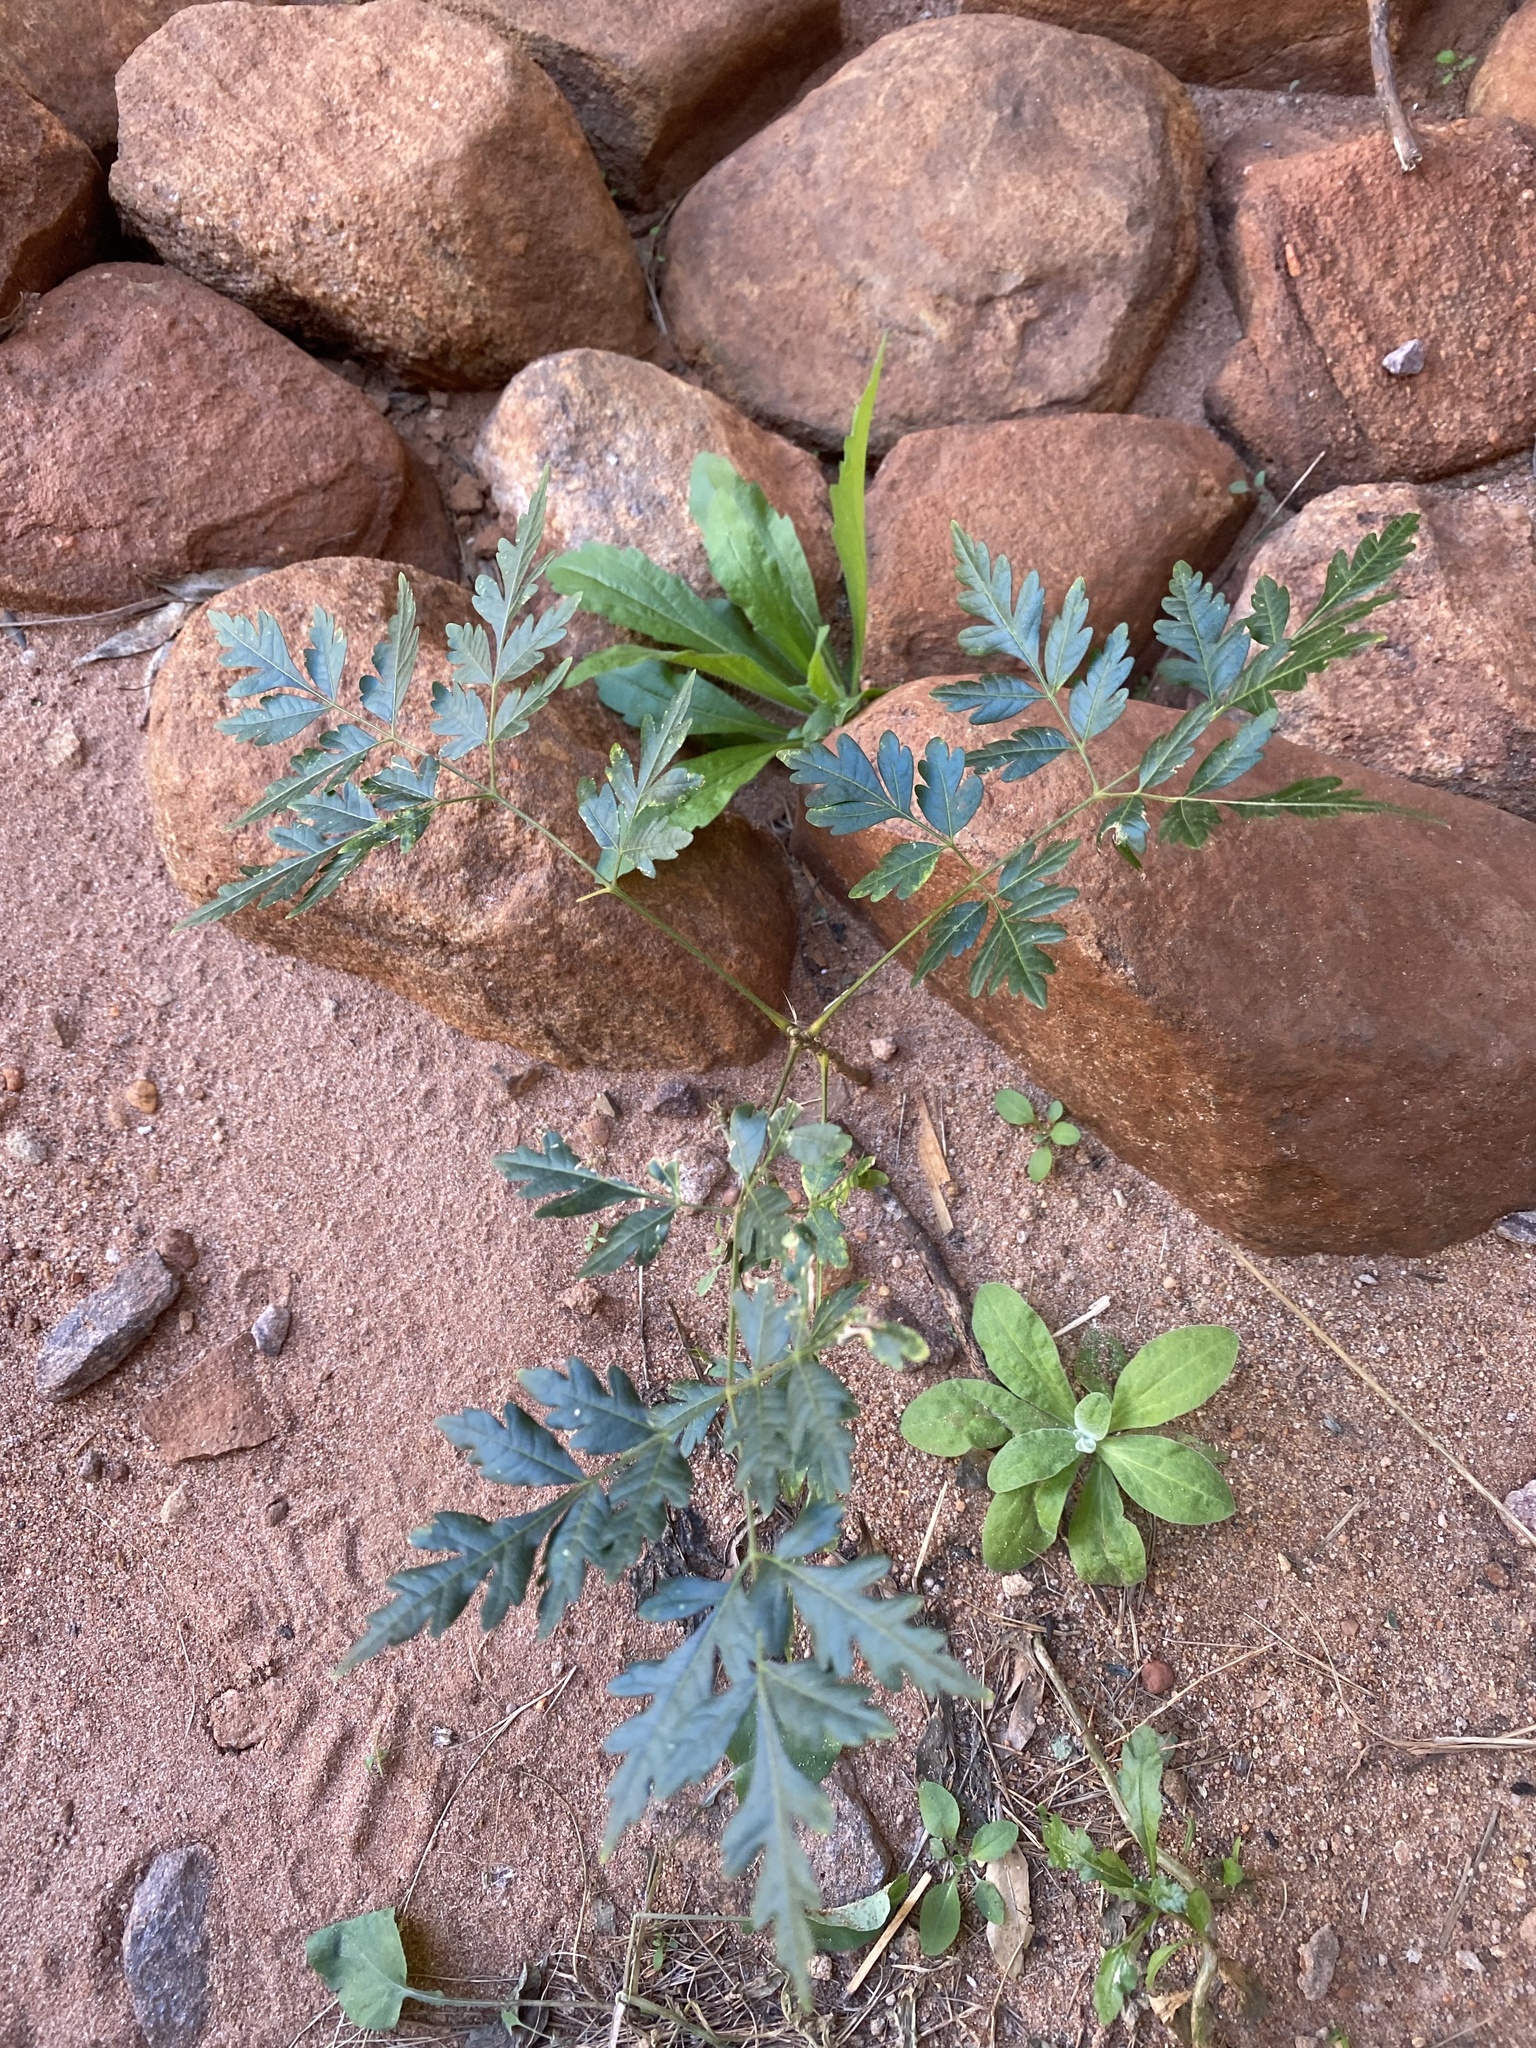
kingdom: Plantae
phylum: Tracheophyta
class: Magnoliopsida
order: Sapindales
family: Meliaceae
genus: Melia
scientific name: Melia azedarach
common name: Chinaberrytree
